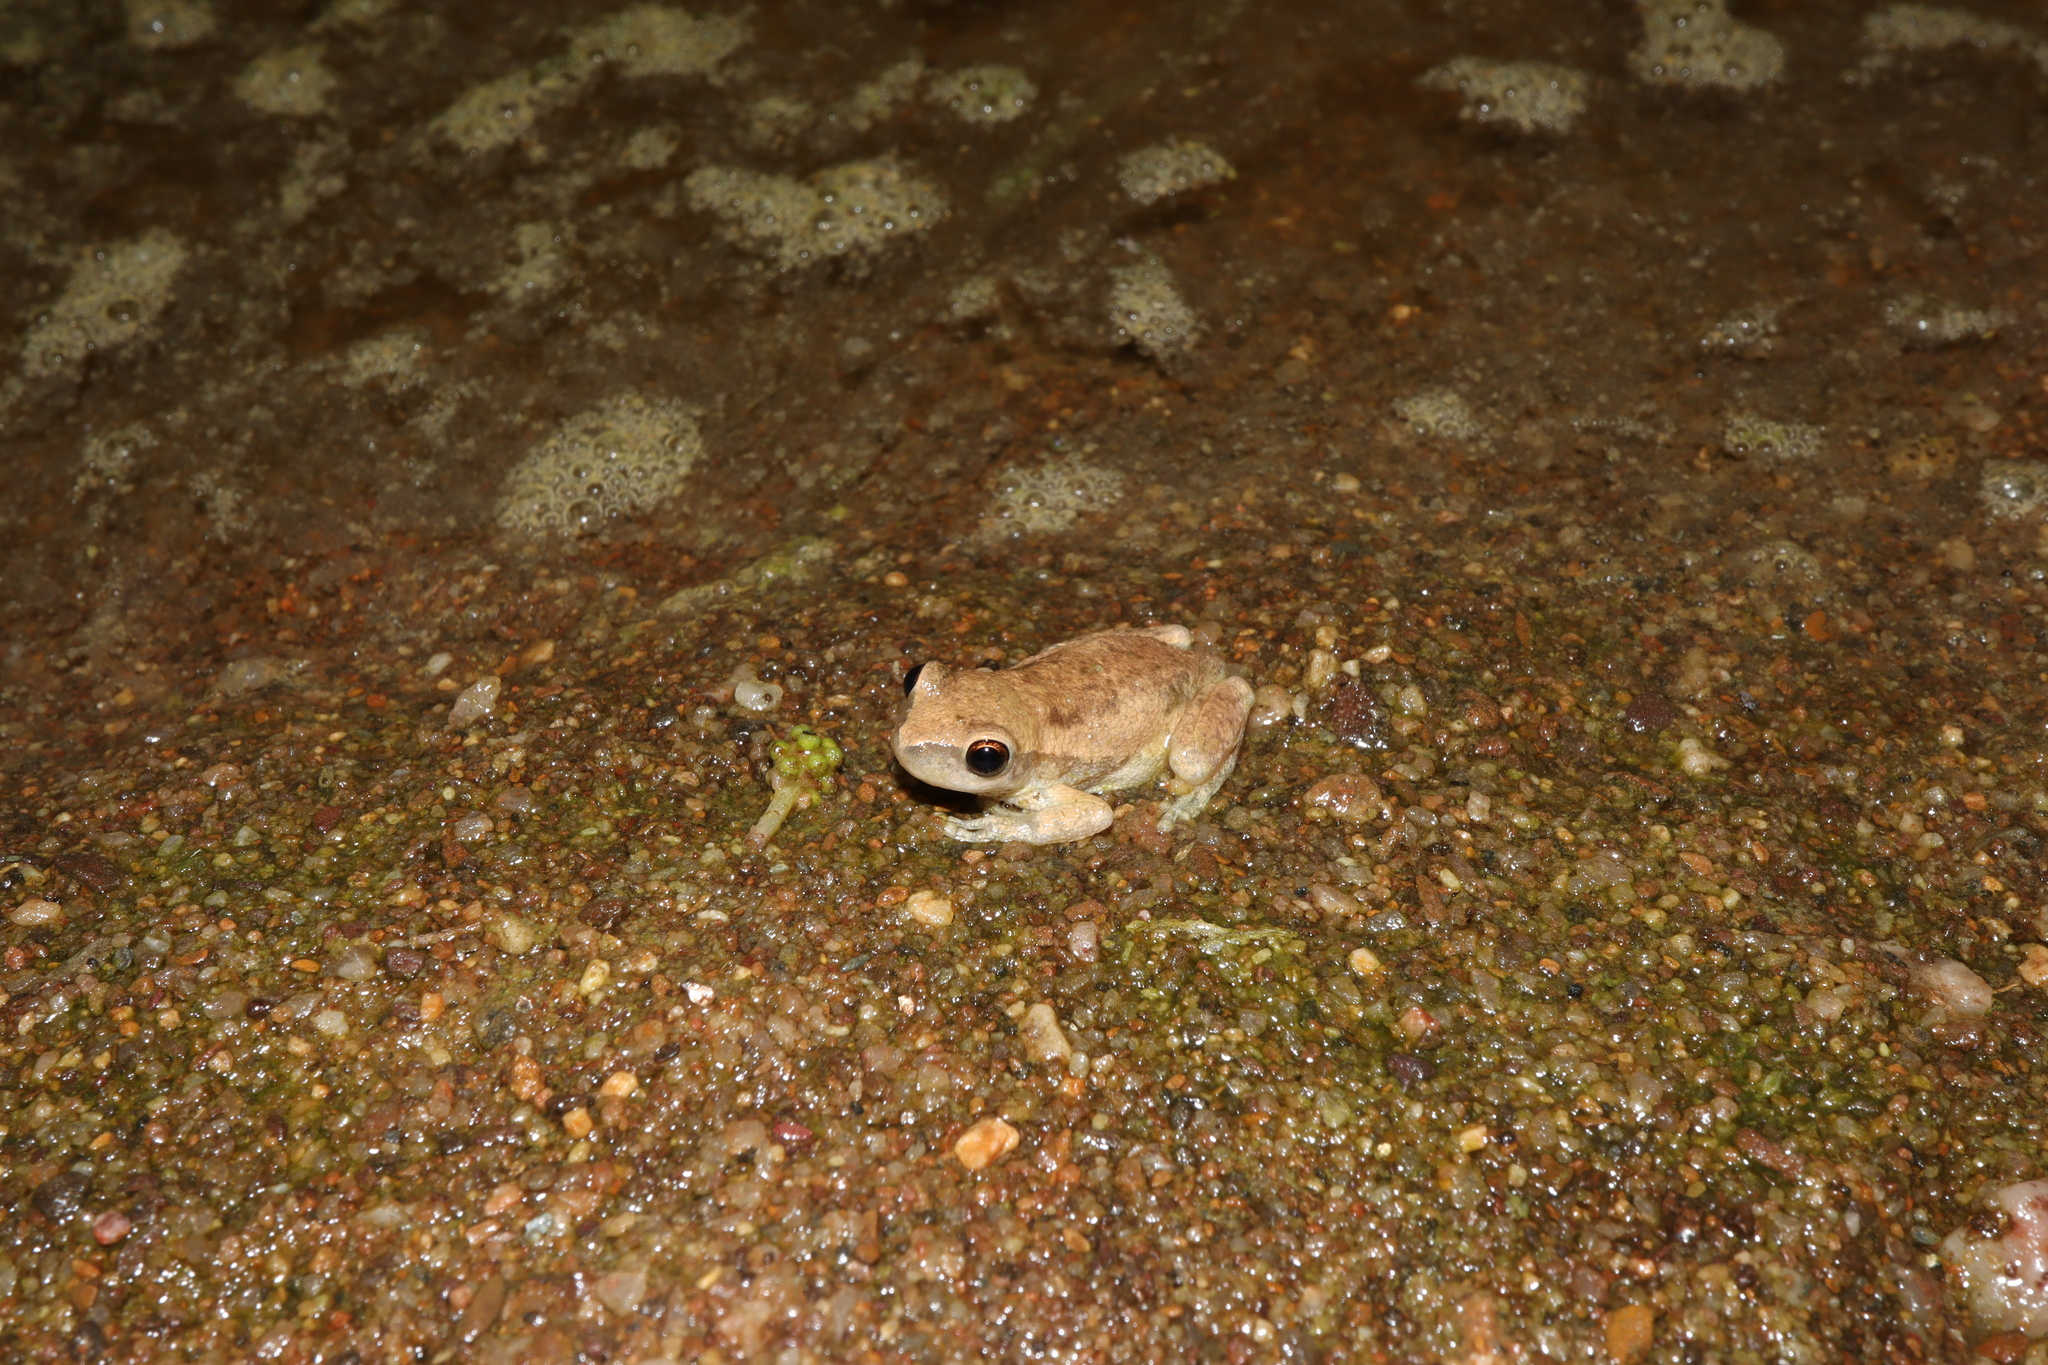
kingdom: Animalia
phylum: Chordata
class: Amphibia
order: Anura
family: Pelodryadidae
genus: Litoria
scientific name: Litoria rubella
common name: Desert tree frog
